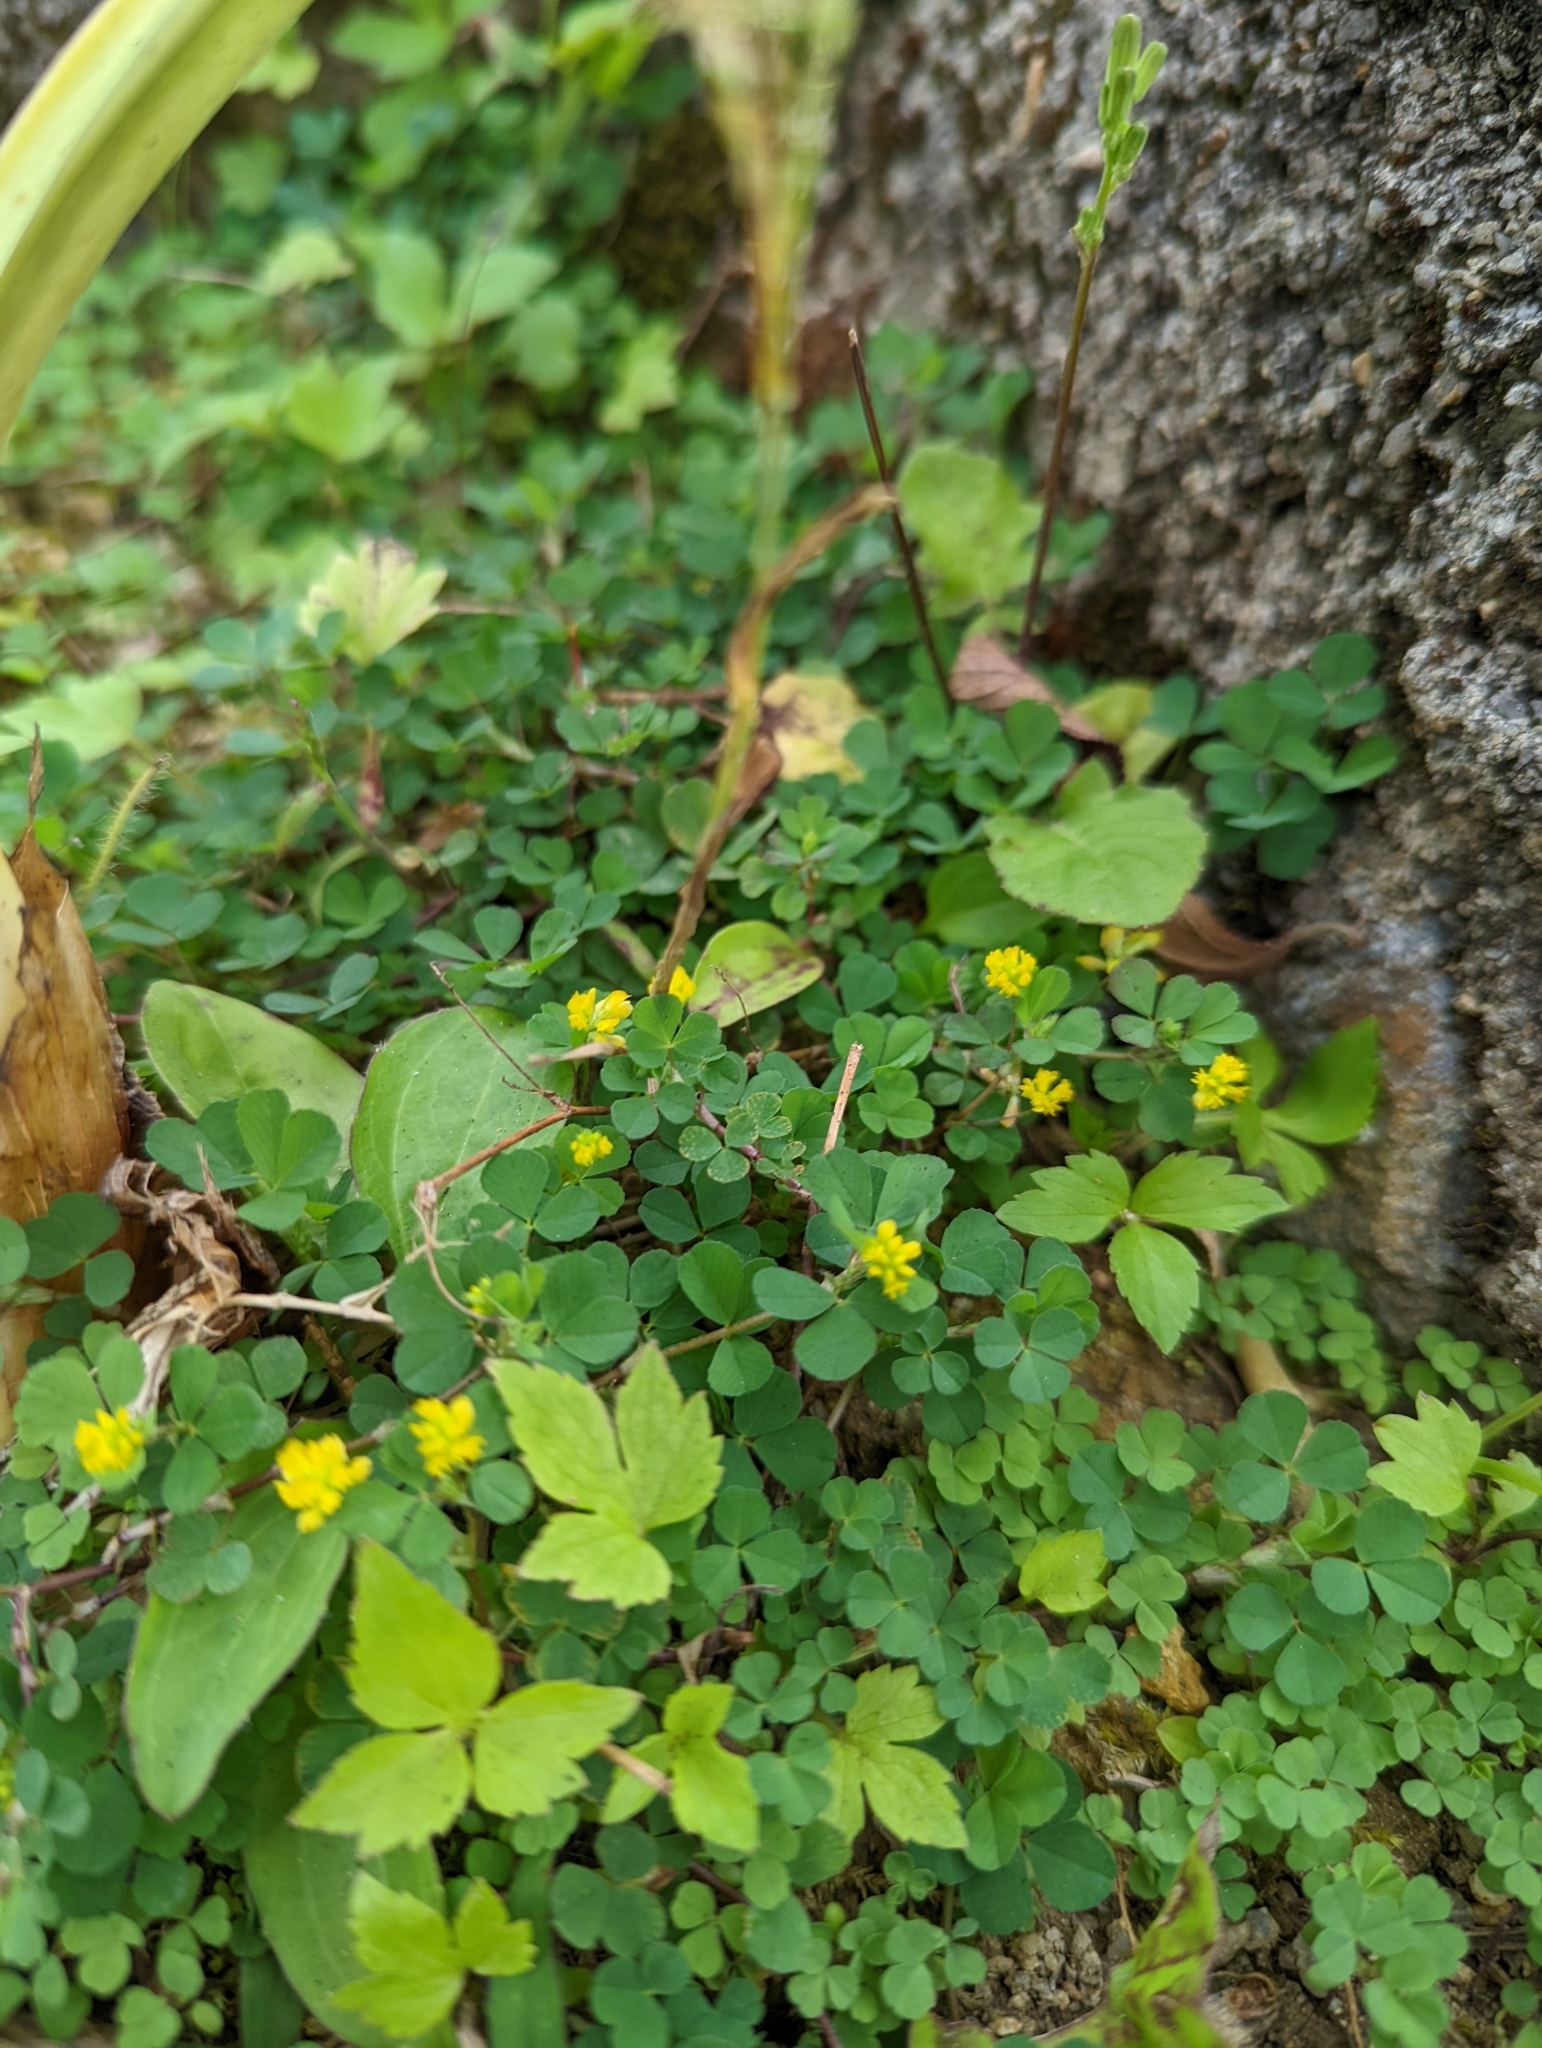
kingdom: Plantae
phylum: Tracheophyta
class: Magnoliopsida
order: Fabales
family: Fabaceae
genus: Trifolium
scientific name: Trifolium dubium
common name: Suckling clover
